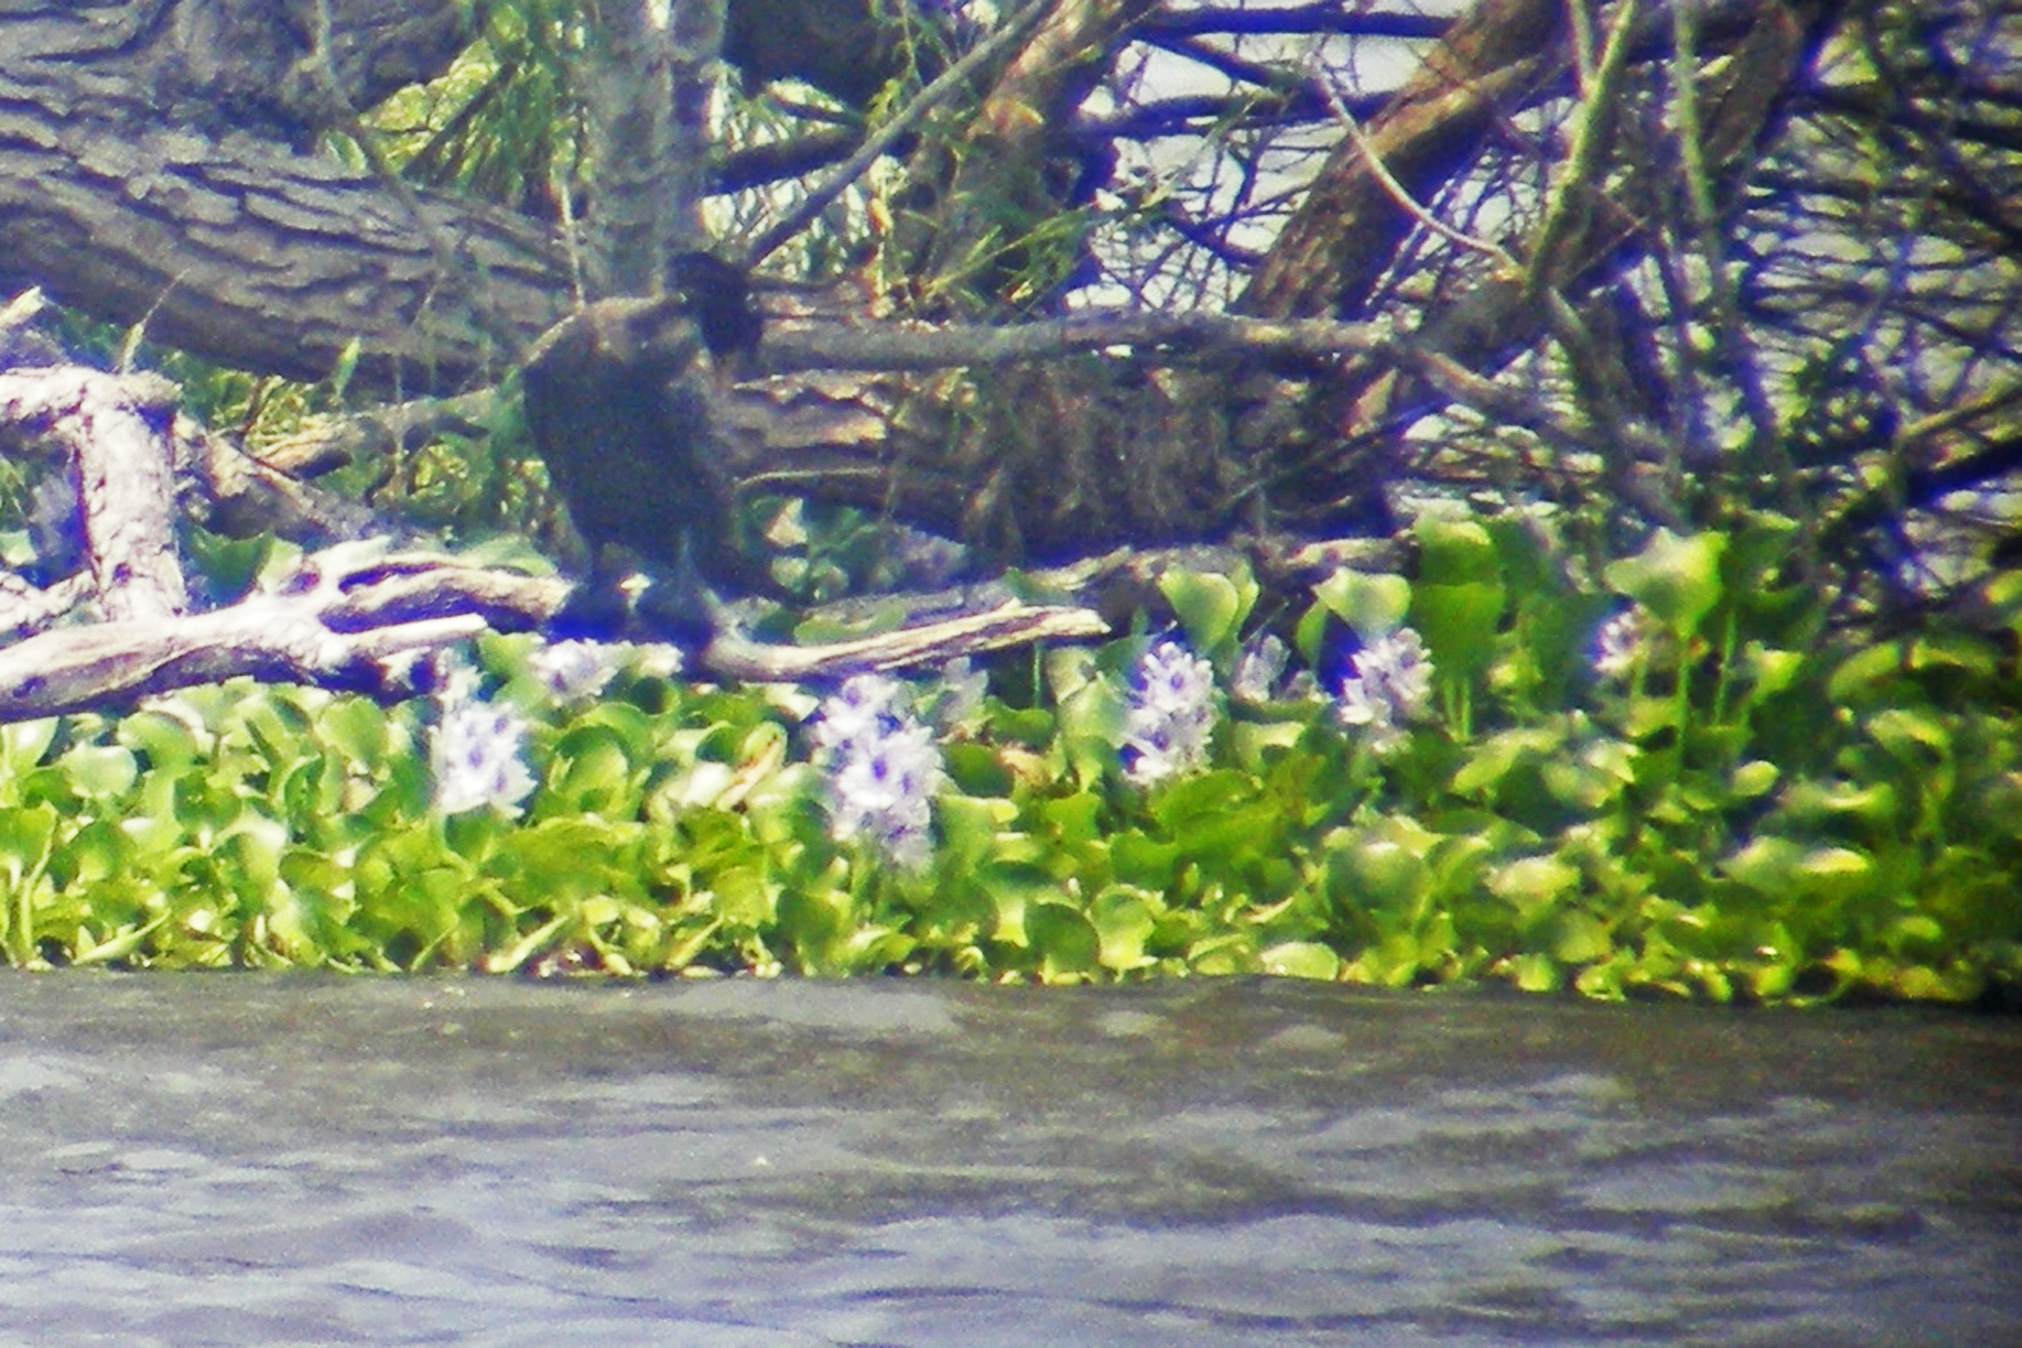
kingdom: Plantae
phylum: Tracheophyta
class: Liliopsida
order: Commelinales
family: Pontederiaceae
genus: Pontederia
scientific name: Pontederia crassipes
